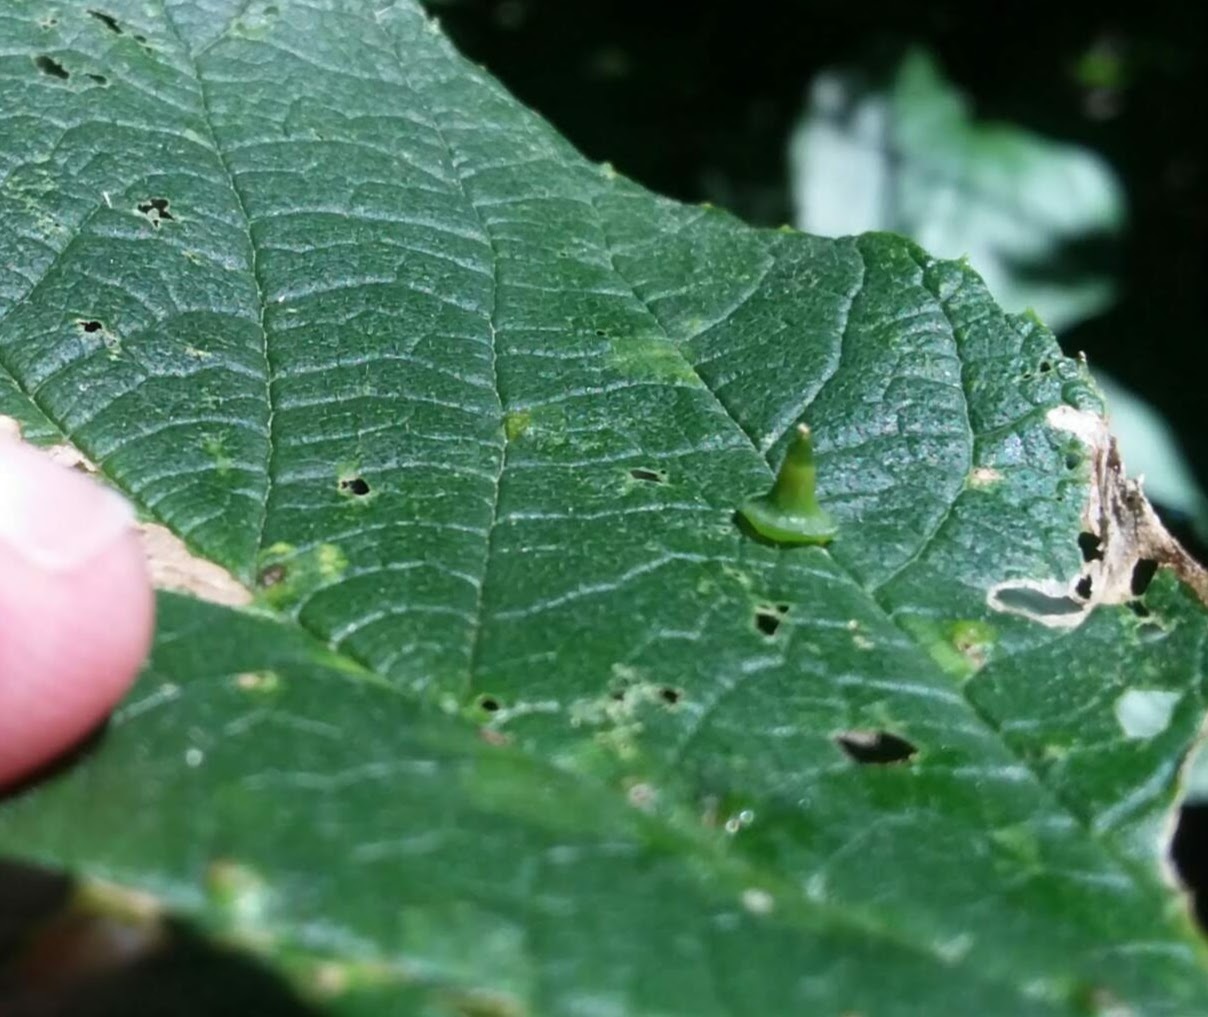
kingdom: Animalia
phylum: Arthropoda
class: Insecta
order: Diptera
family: Cecidomyiidae
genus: Celticecis
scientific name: Celticecis spiniformis
